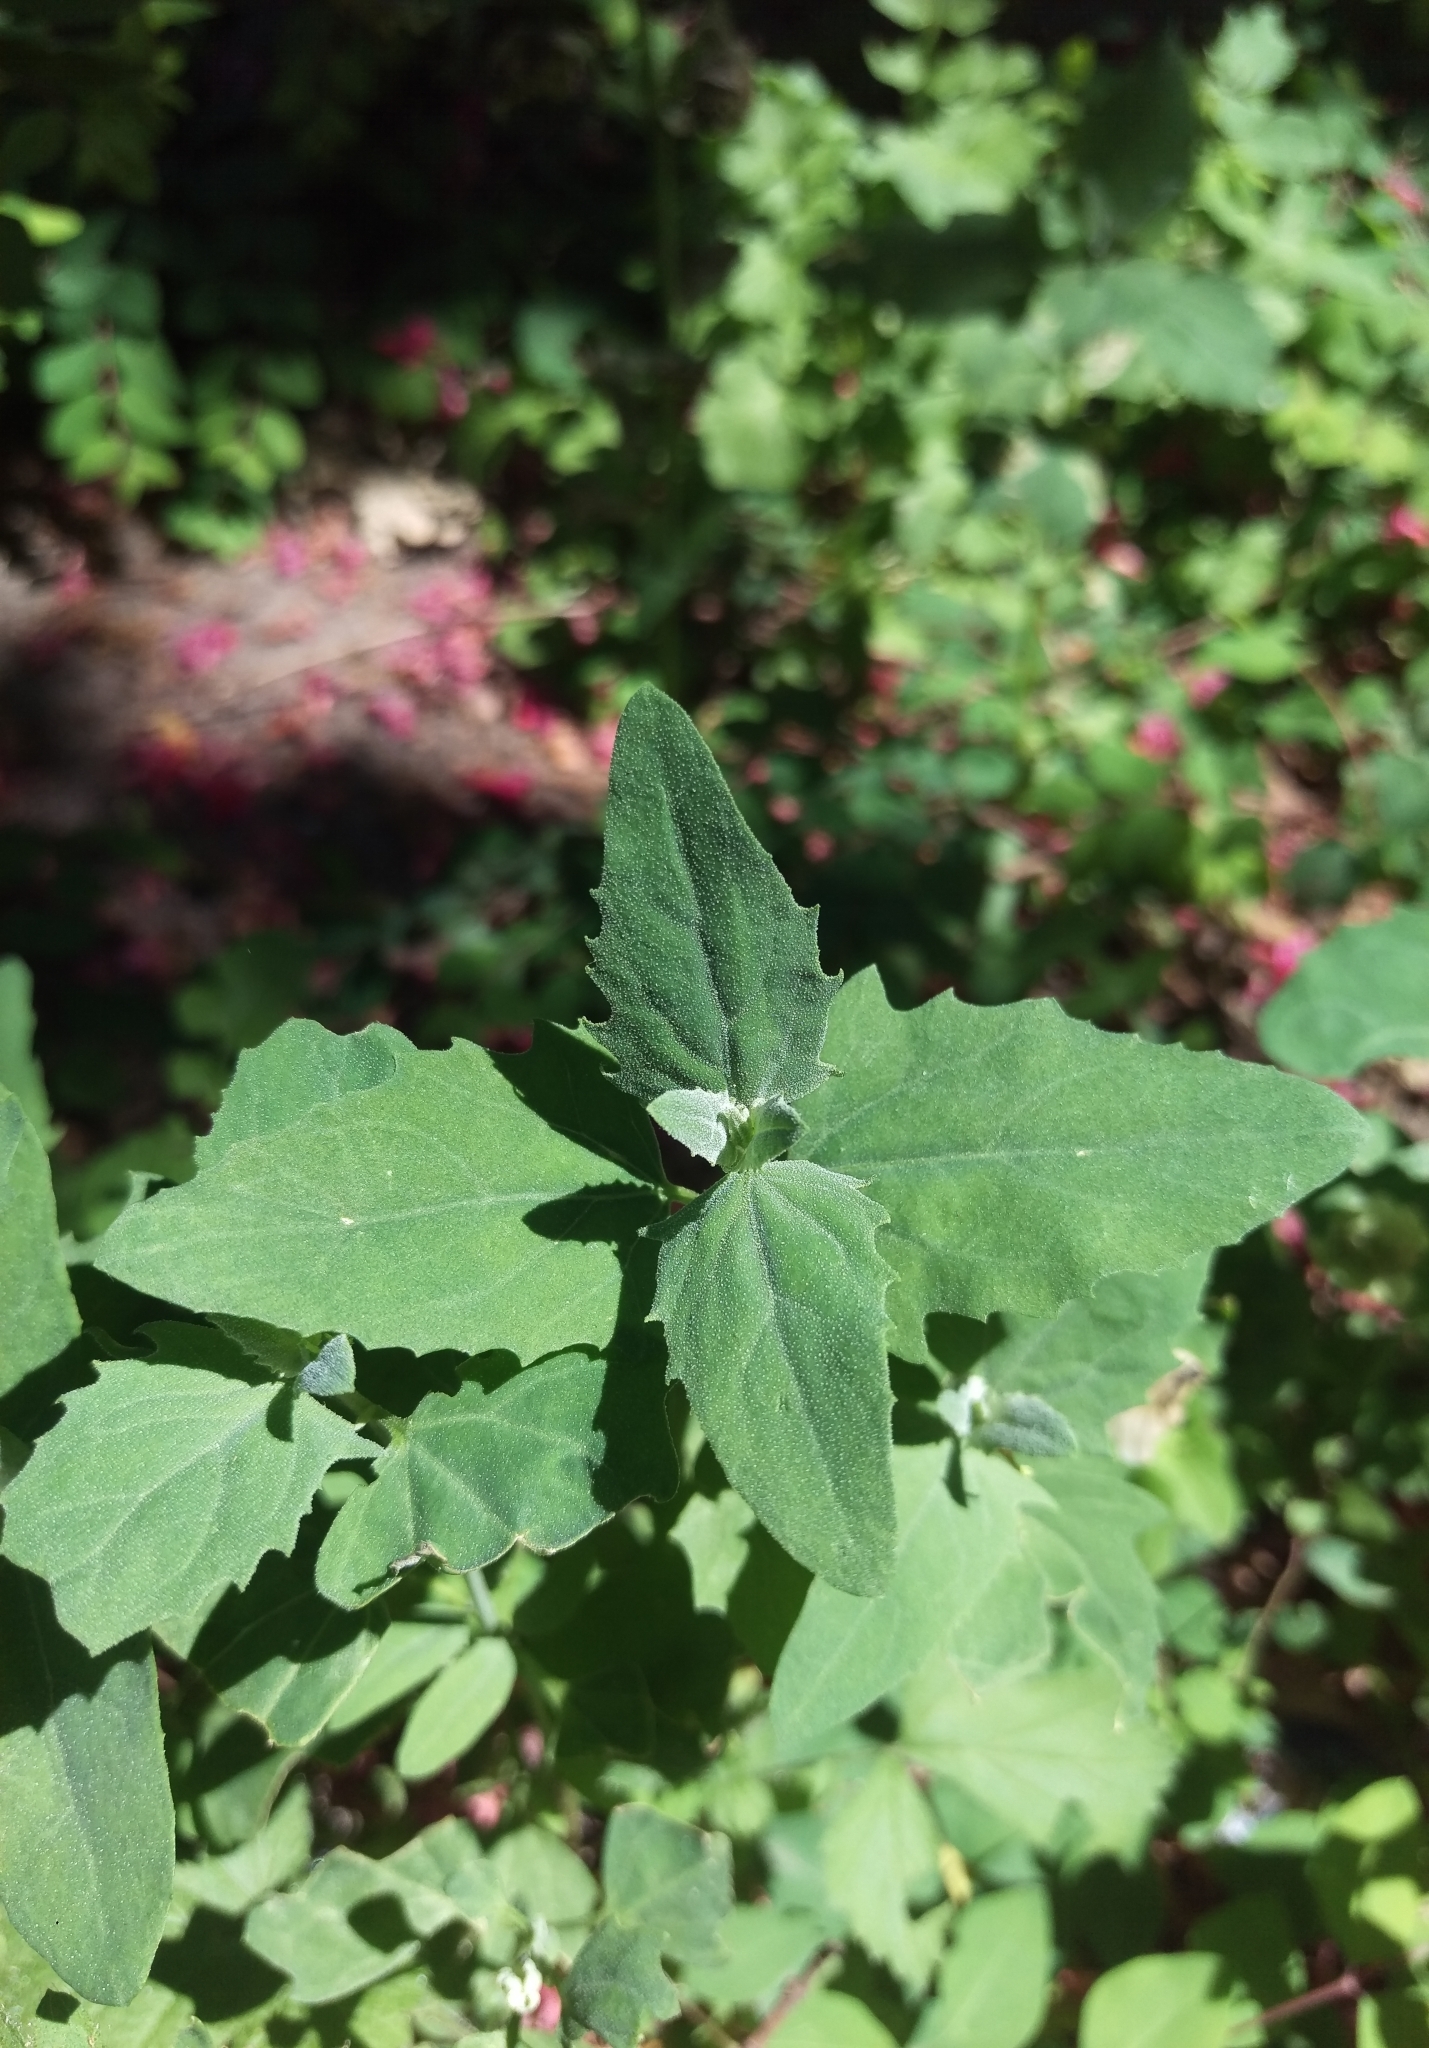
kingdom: Plantae
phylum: Tracheophyta
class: Magnoliopsida
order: Caryophyllales
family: Amaranthaceae
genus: Chenopodium
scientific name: Chenopodium album
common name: Fat-hen
